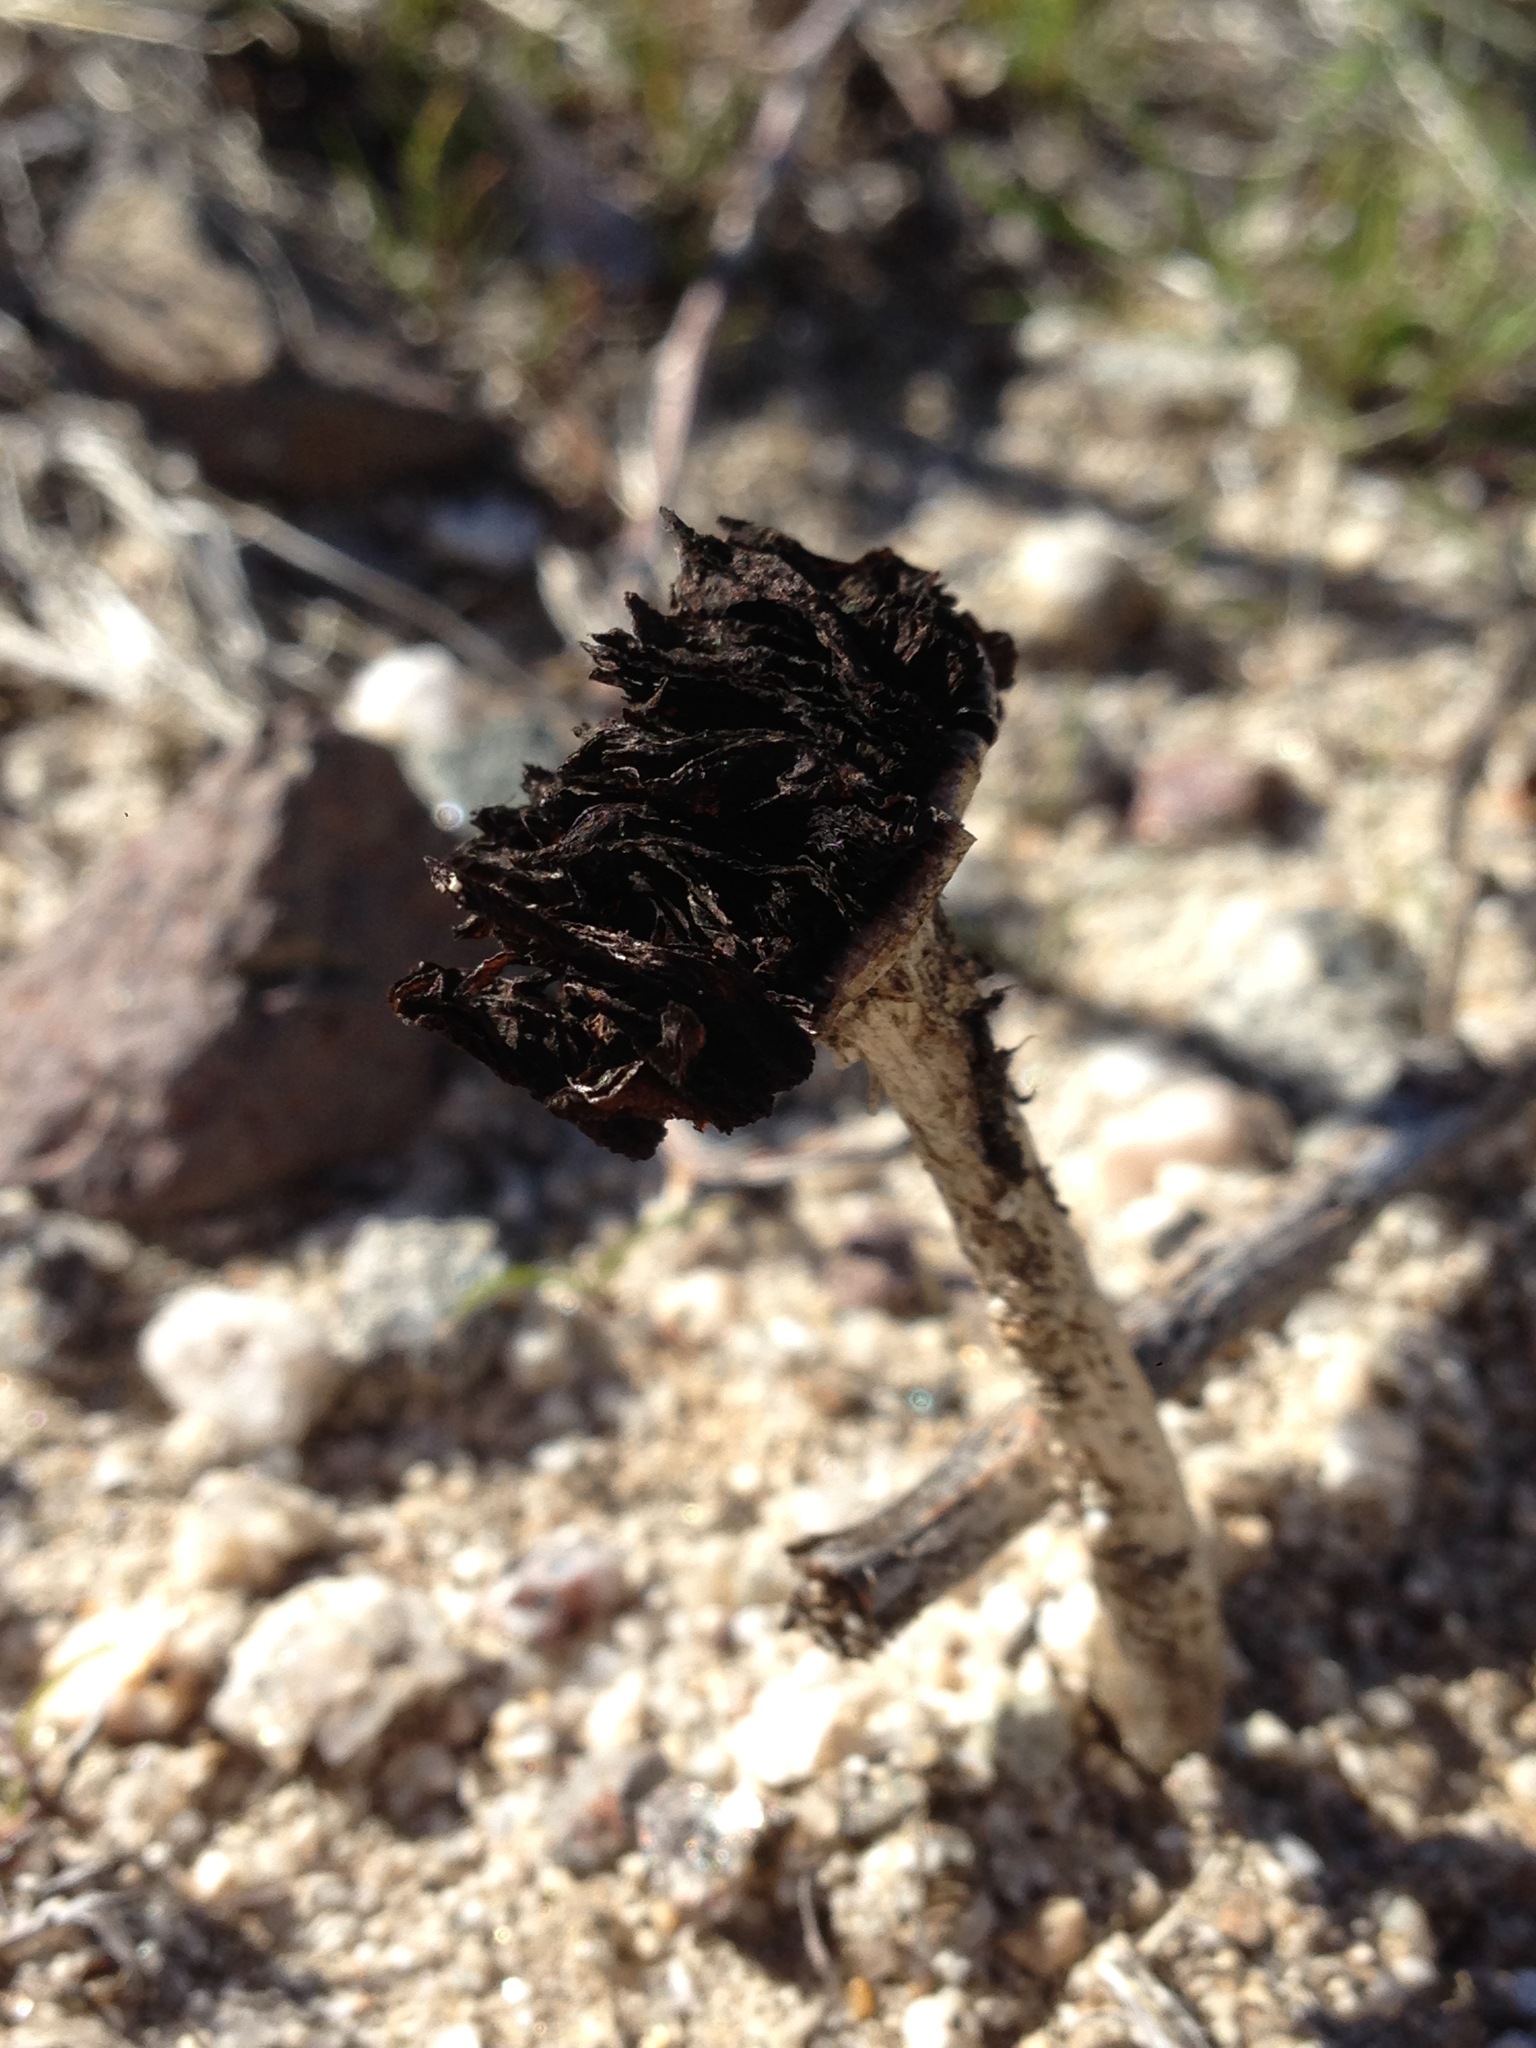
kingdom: Fungi
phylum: Basidiomycota
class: Agaricomycetes
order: Agaricales
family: Agaricaceae
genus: Montagnea
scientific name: Montagnea arenaria
